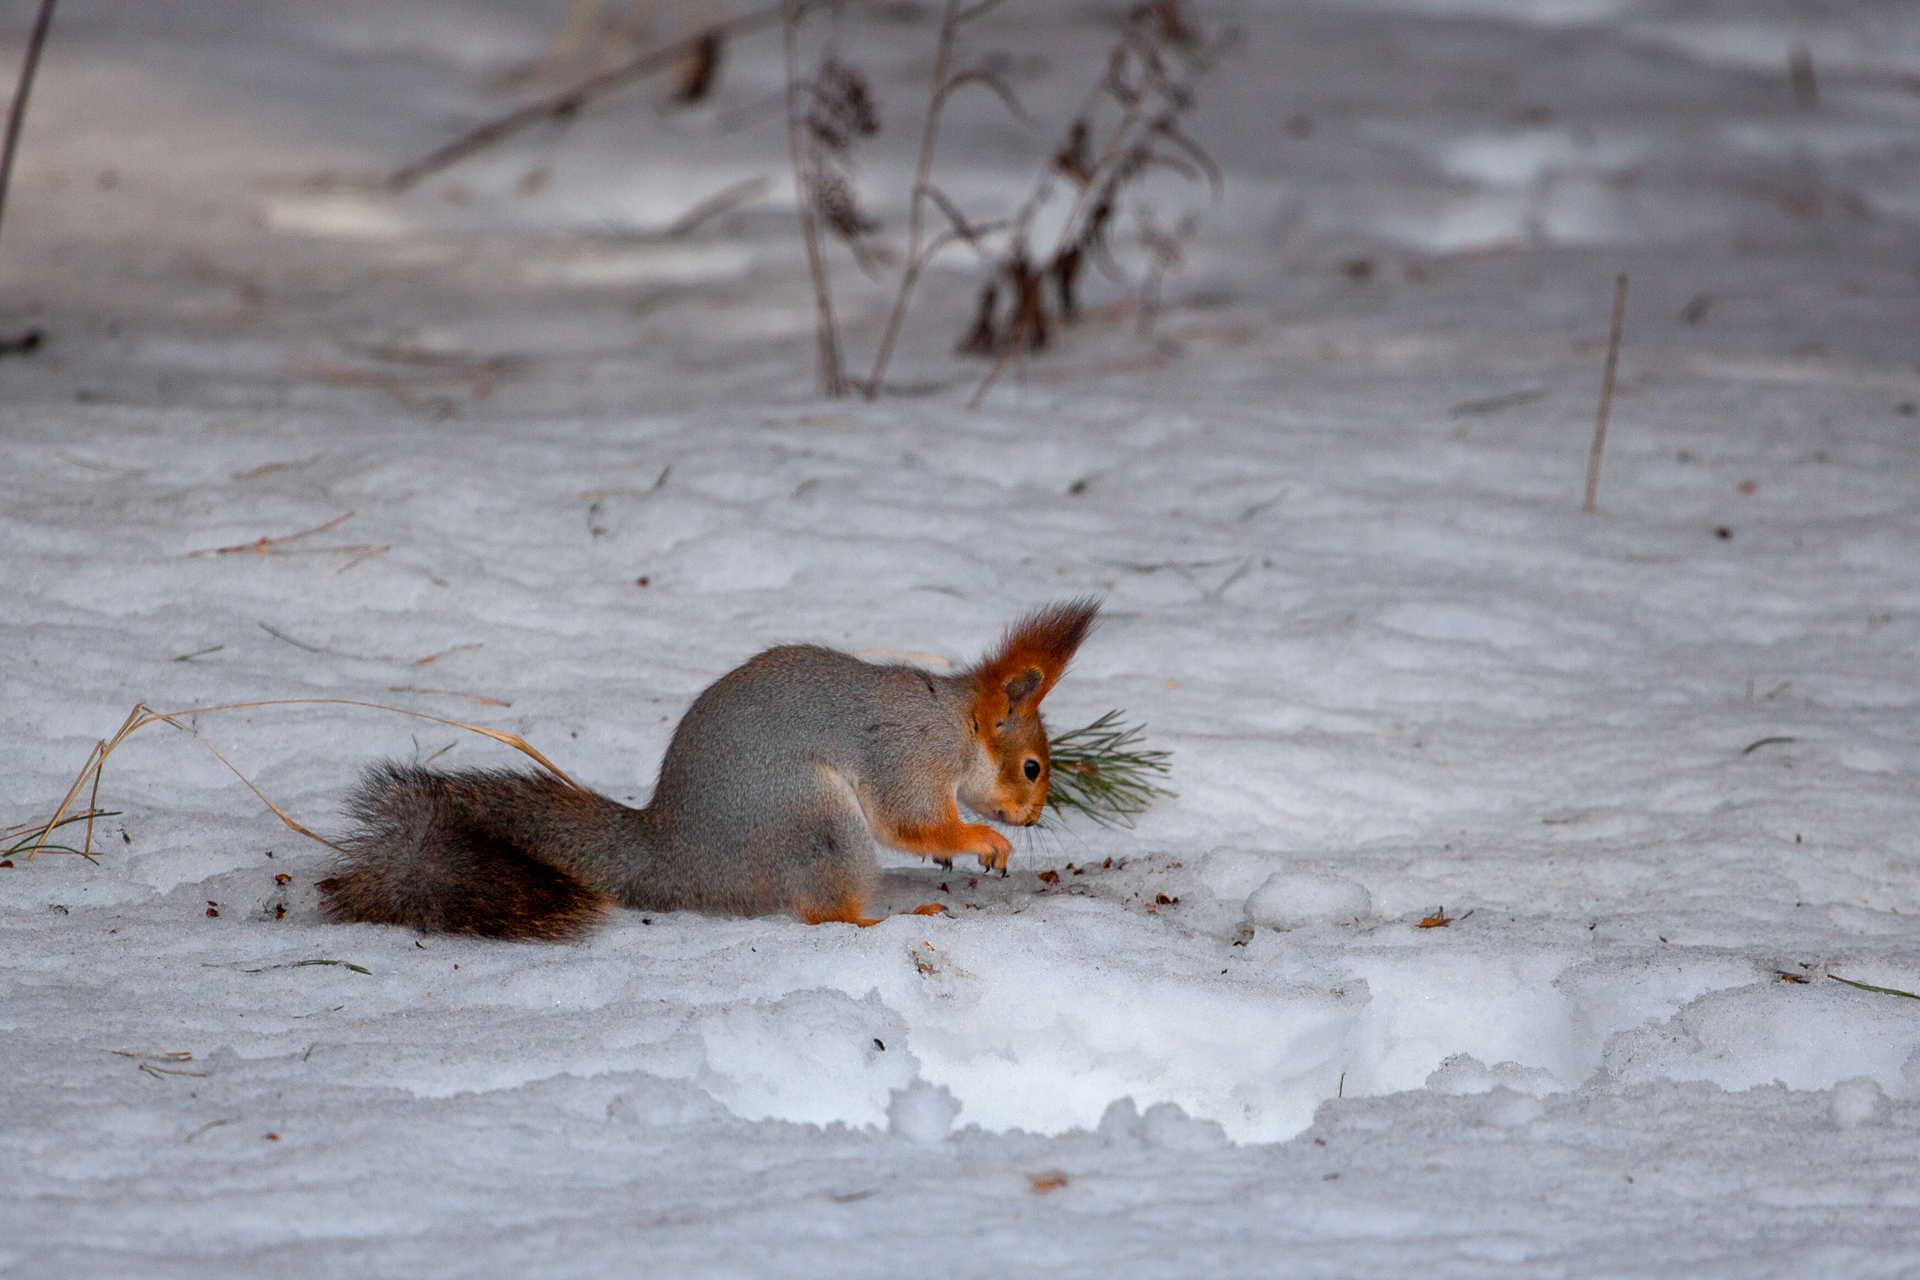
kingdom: Animalia
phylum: Chordata
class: Mammalia
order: Rodentia
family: Sciuridae
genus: Sciurus
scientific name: Sciurus vulgaris
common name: Eurasian red squirrel
